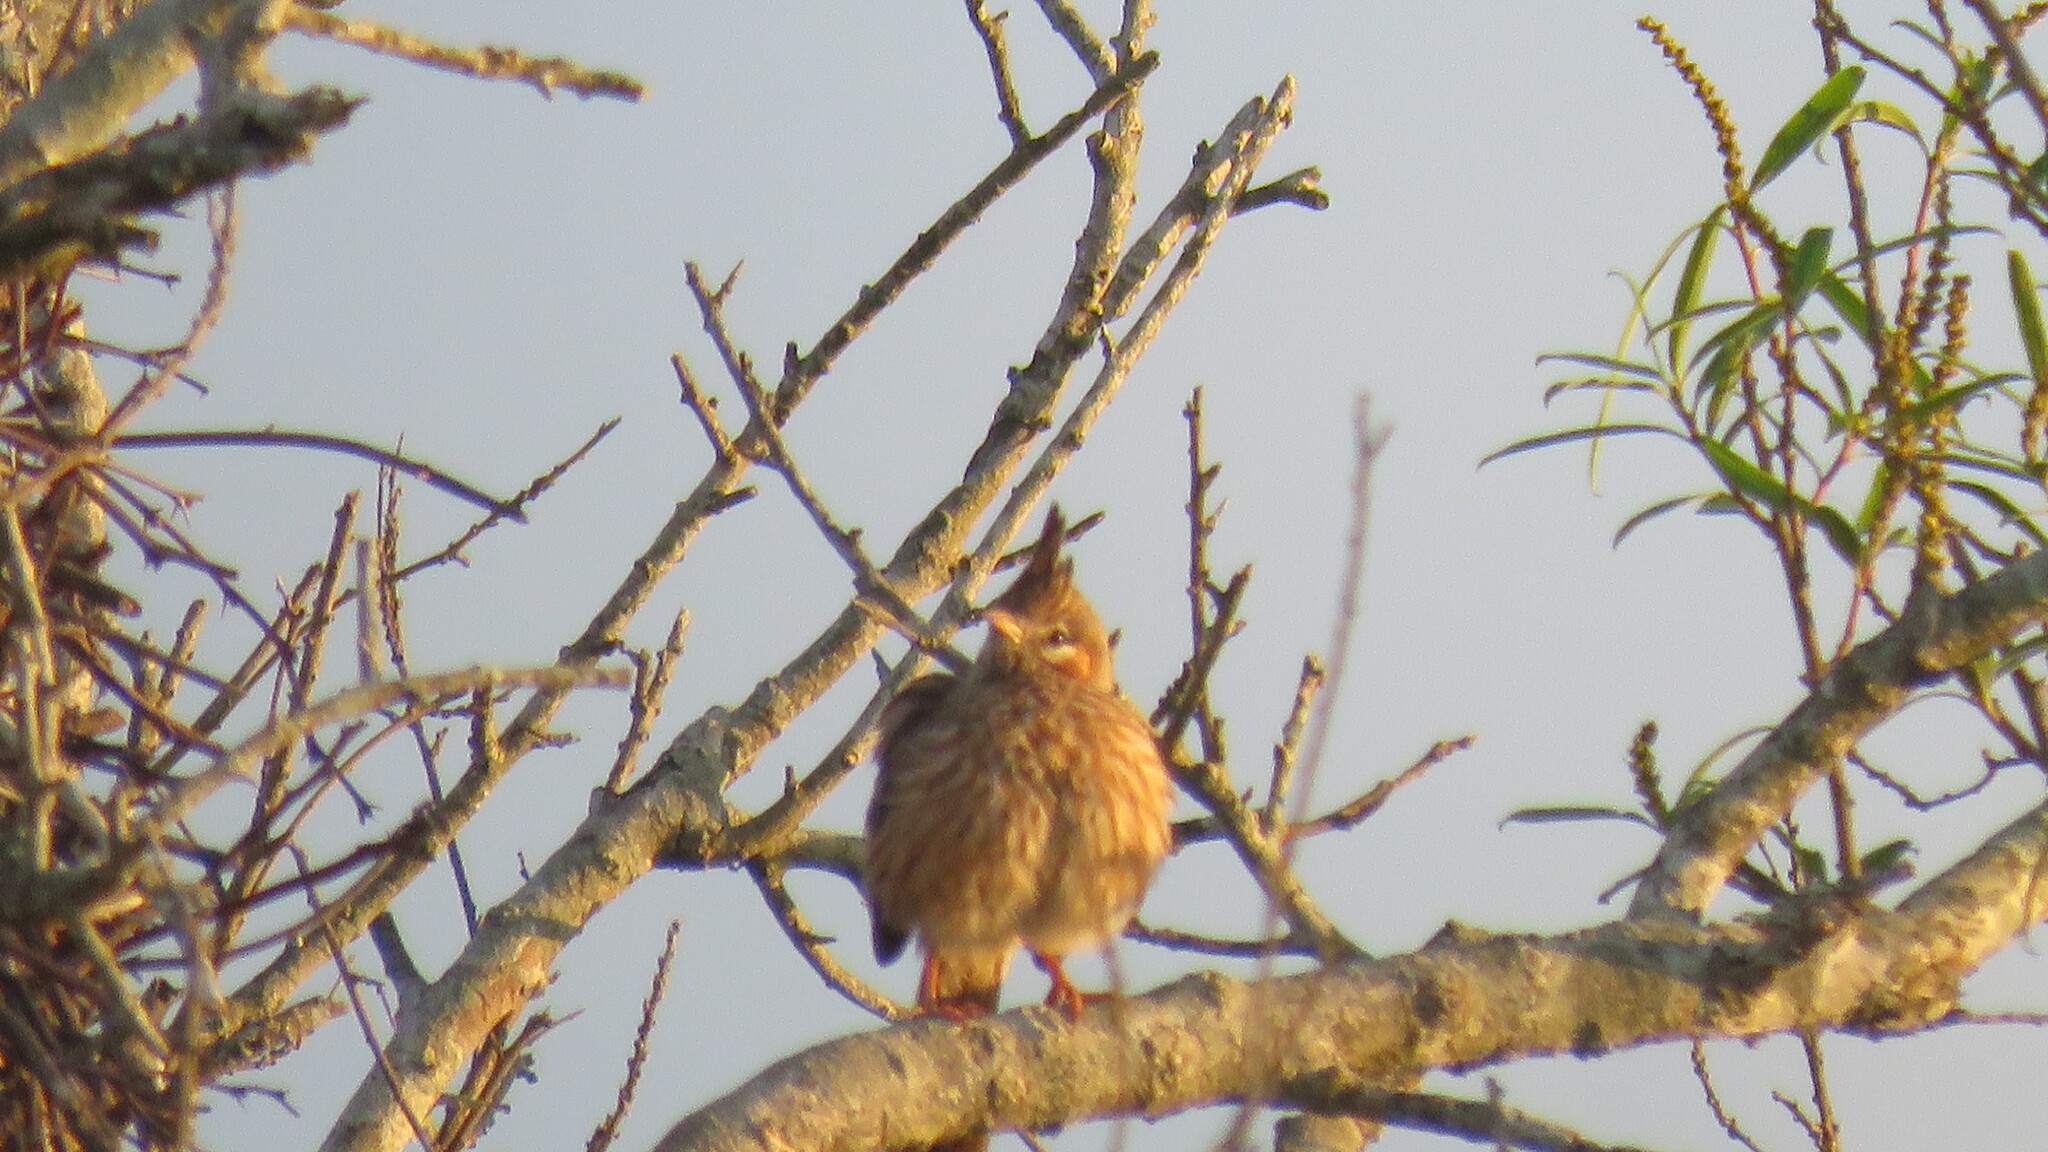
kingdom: Animalia
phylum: Chordata
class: Aves
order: Passeriformes
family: Furnariidae
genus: Coryphistera
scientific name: Coryphistera alaudina
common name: Lark-like brushrunner
